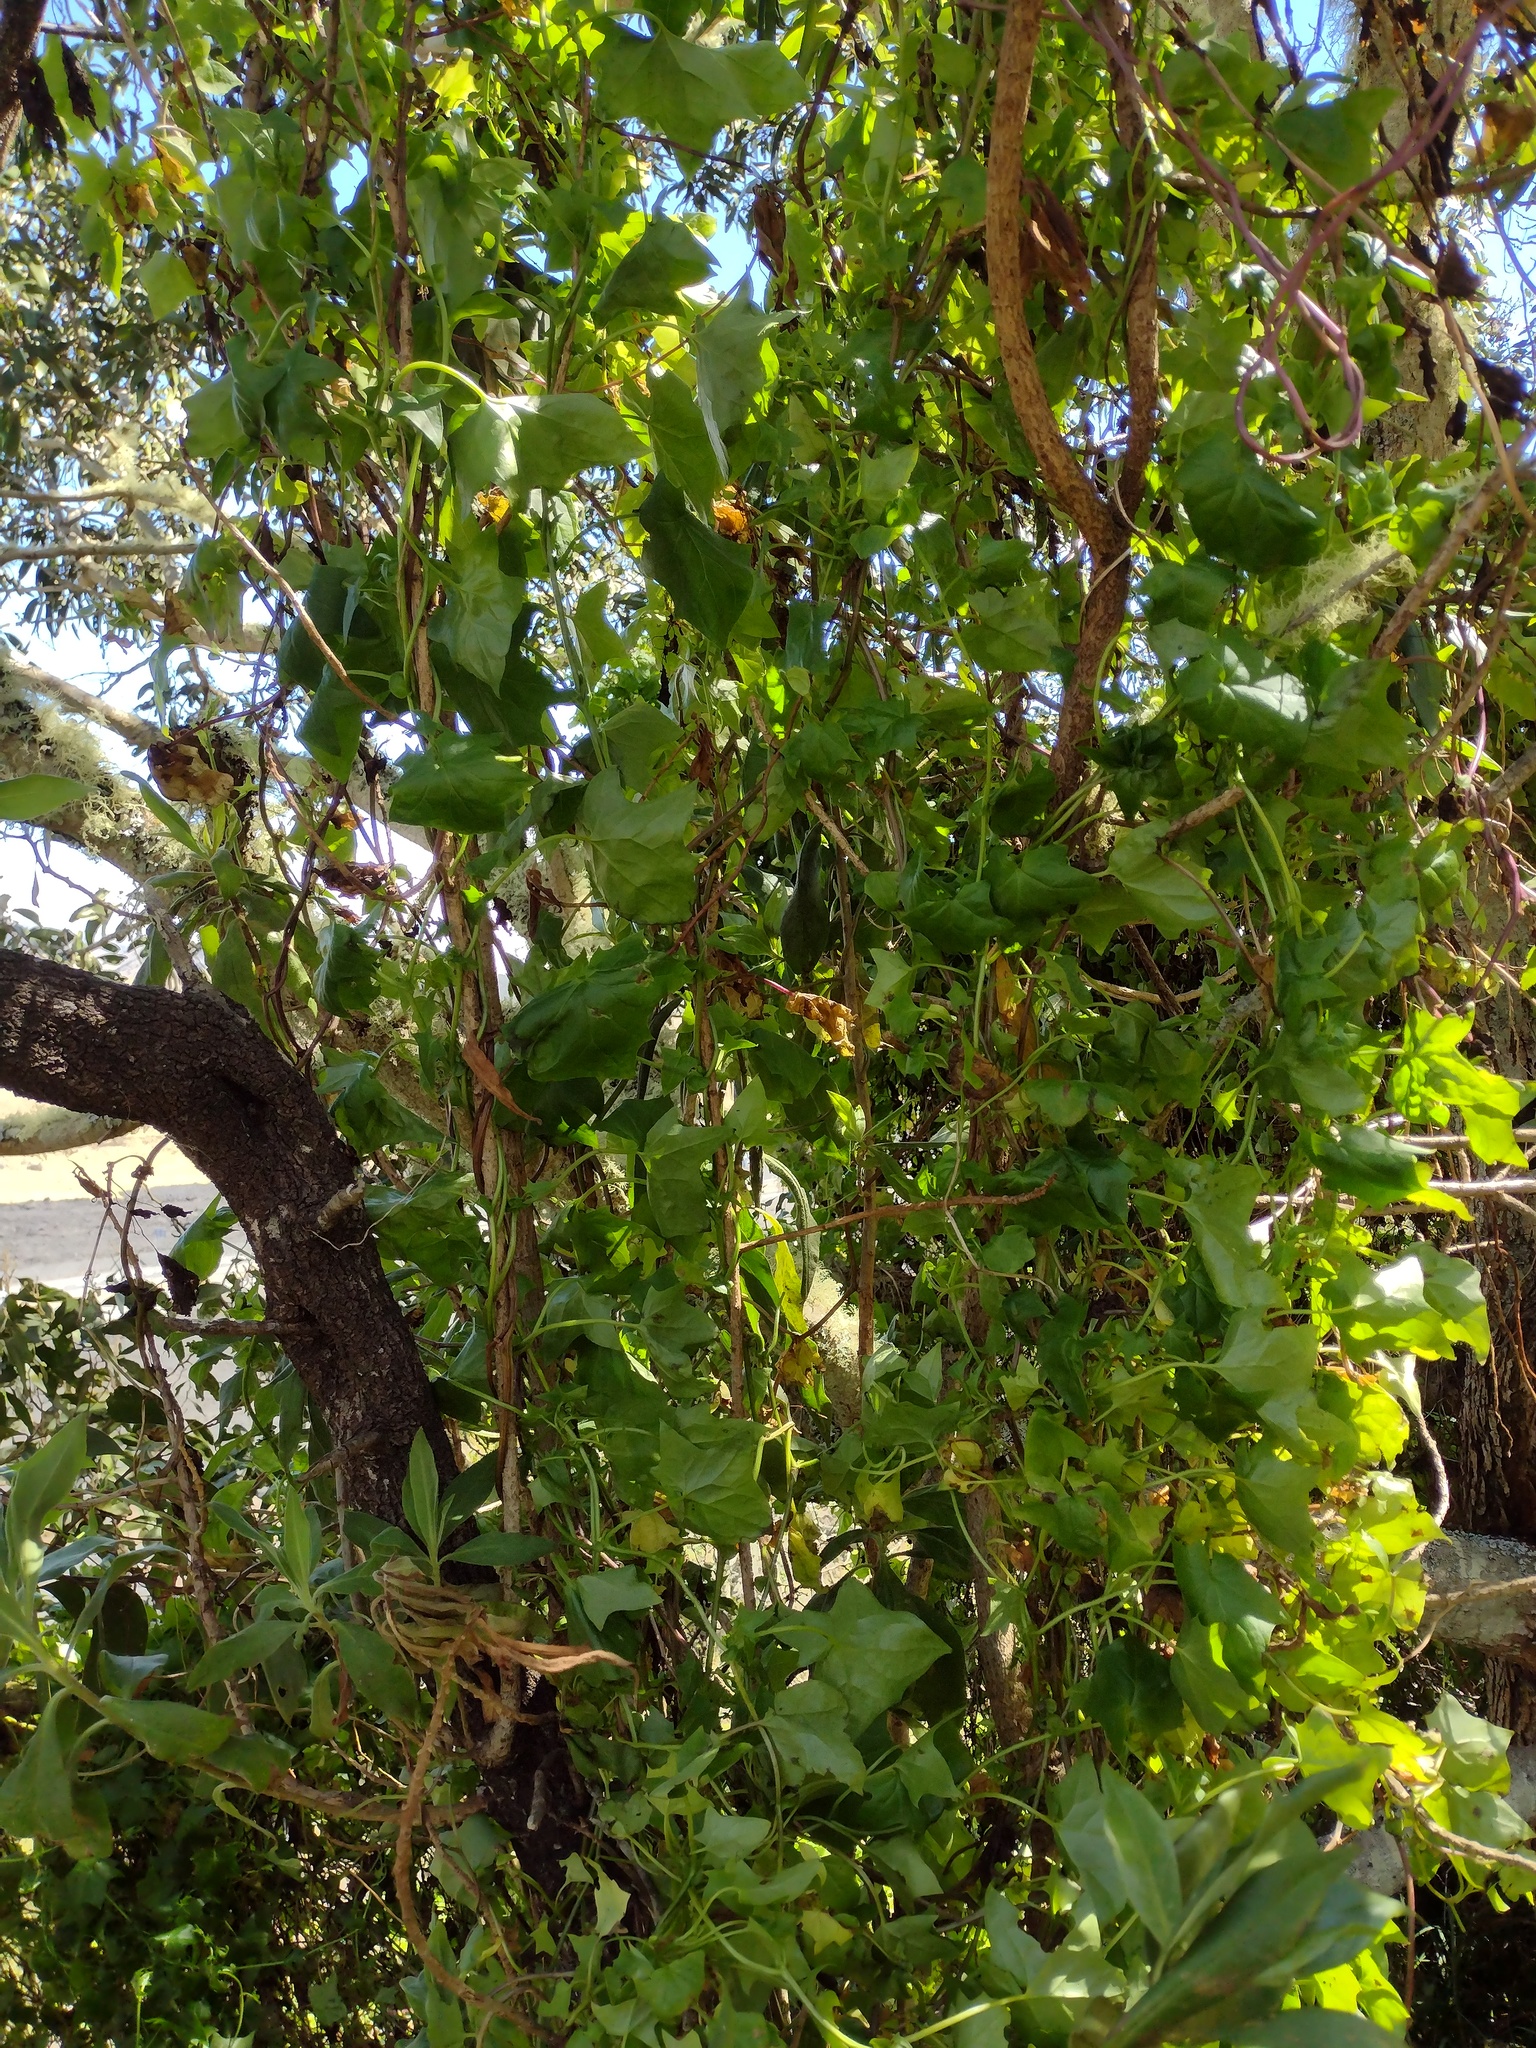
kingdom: Plantae
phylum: Tracheophyta
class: Magnoliopsida
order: Asterales
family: Asteraceae
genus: Delairea
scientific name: Delairea odorata
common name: Cape-ivy
